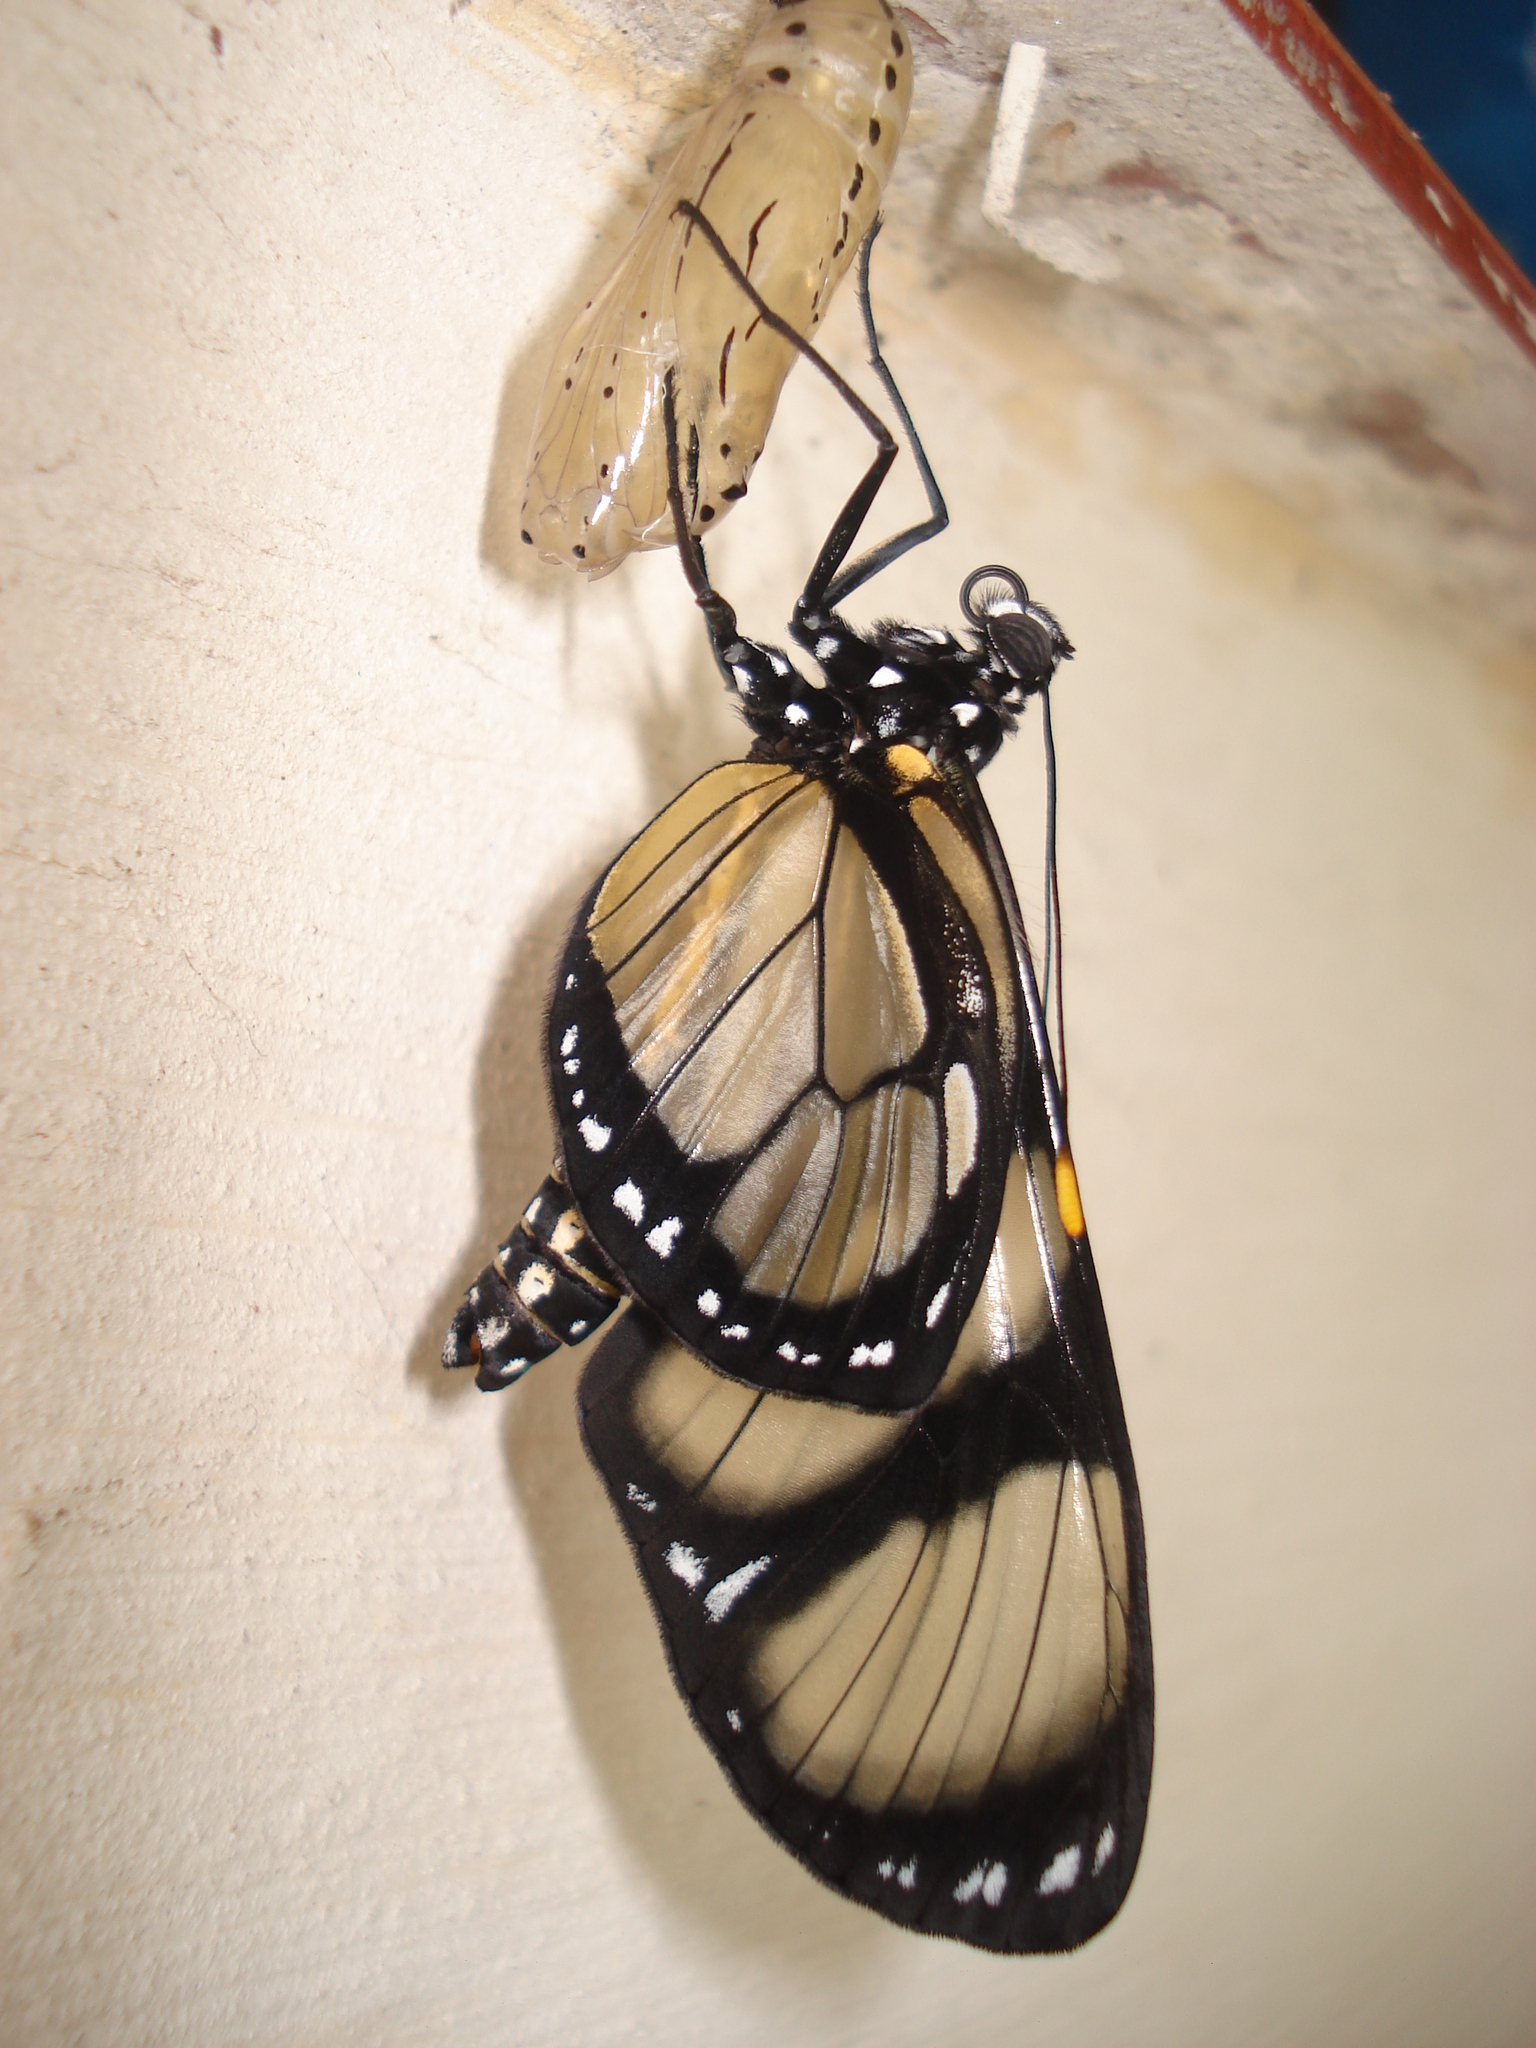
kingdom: Animalia
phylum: Arthropoda
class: Insecta
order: Lepidoptera
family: Nymphalidae
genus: Methona
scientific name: Methona themisto
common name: Themisto amberwing
